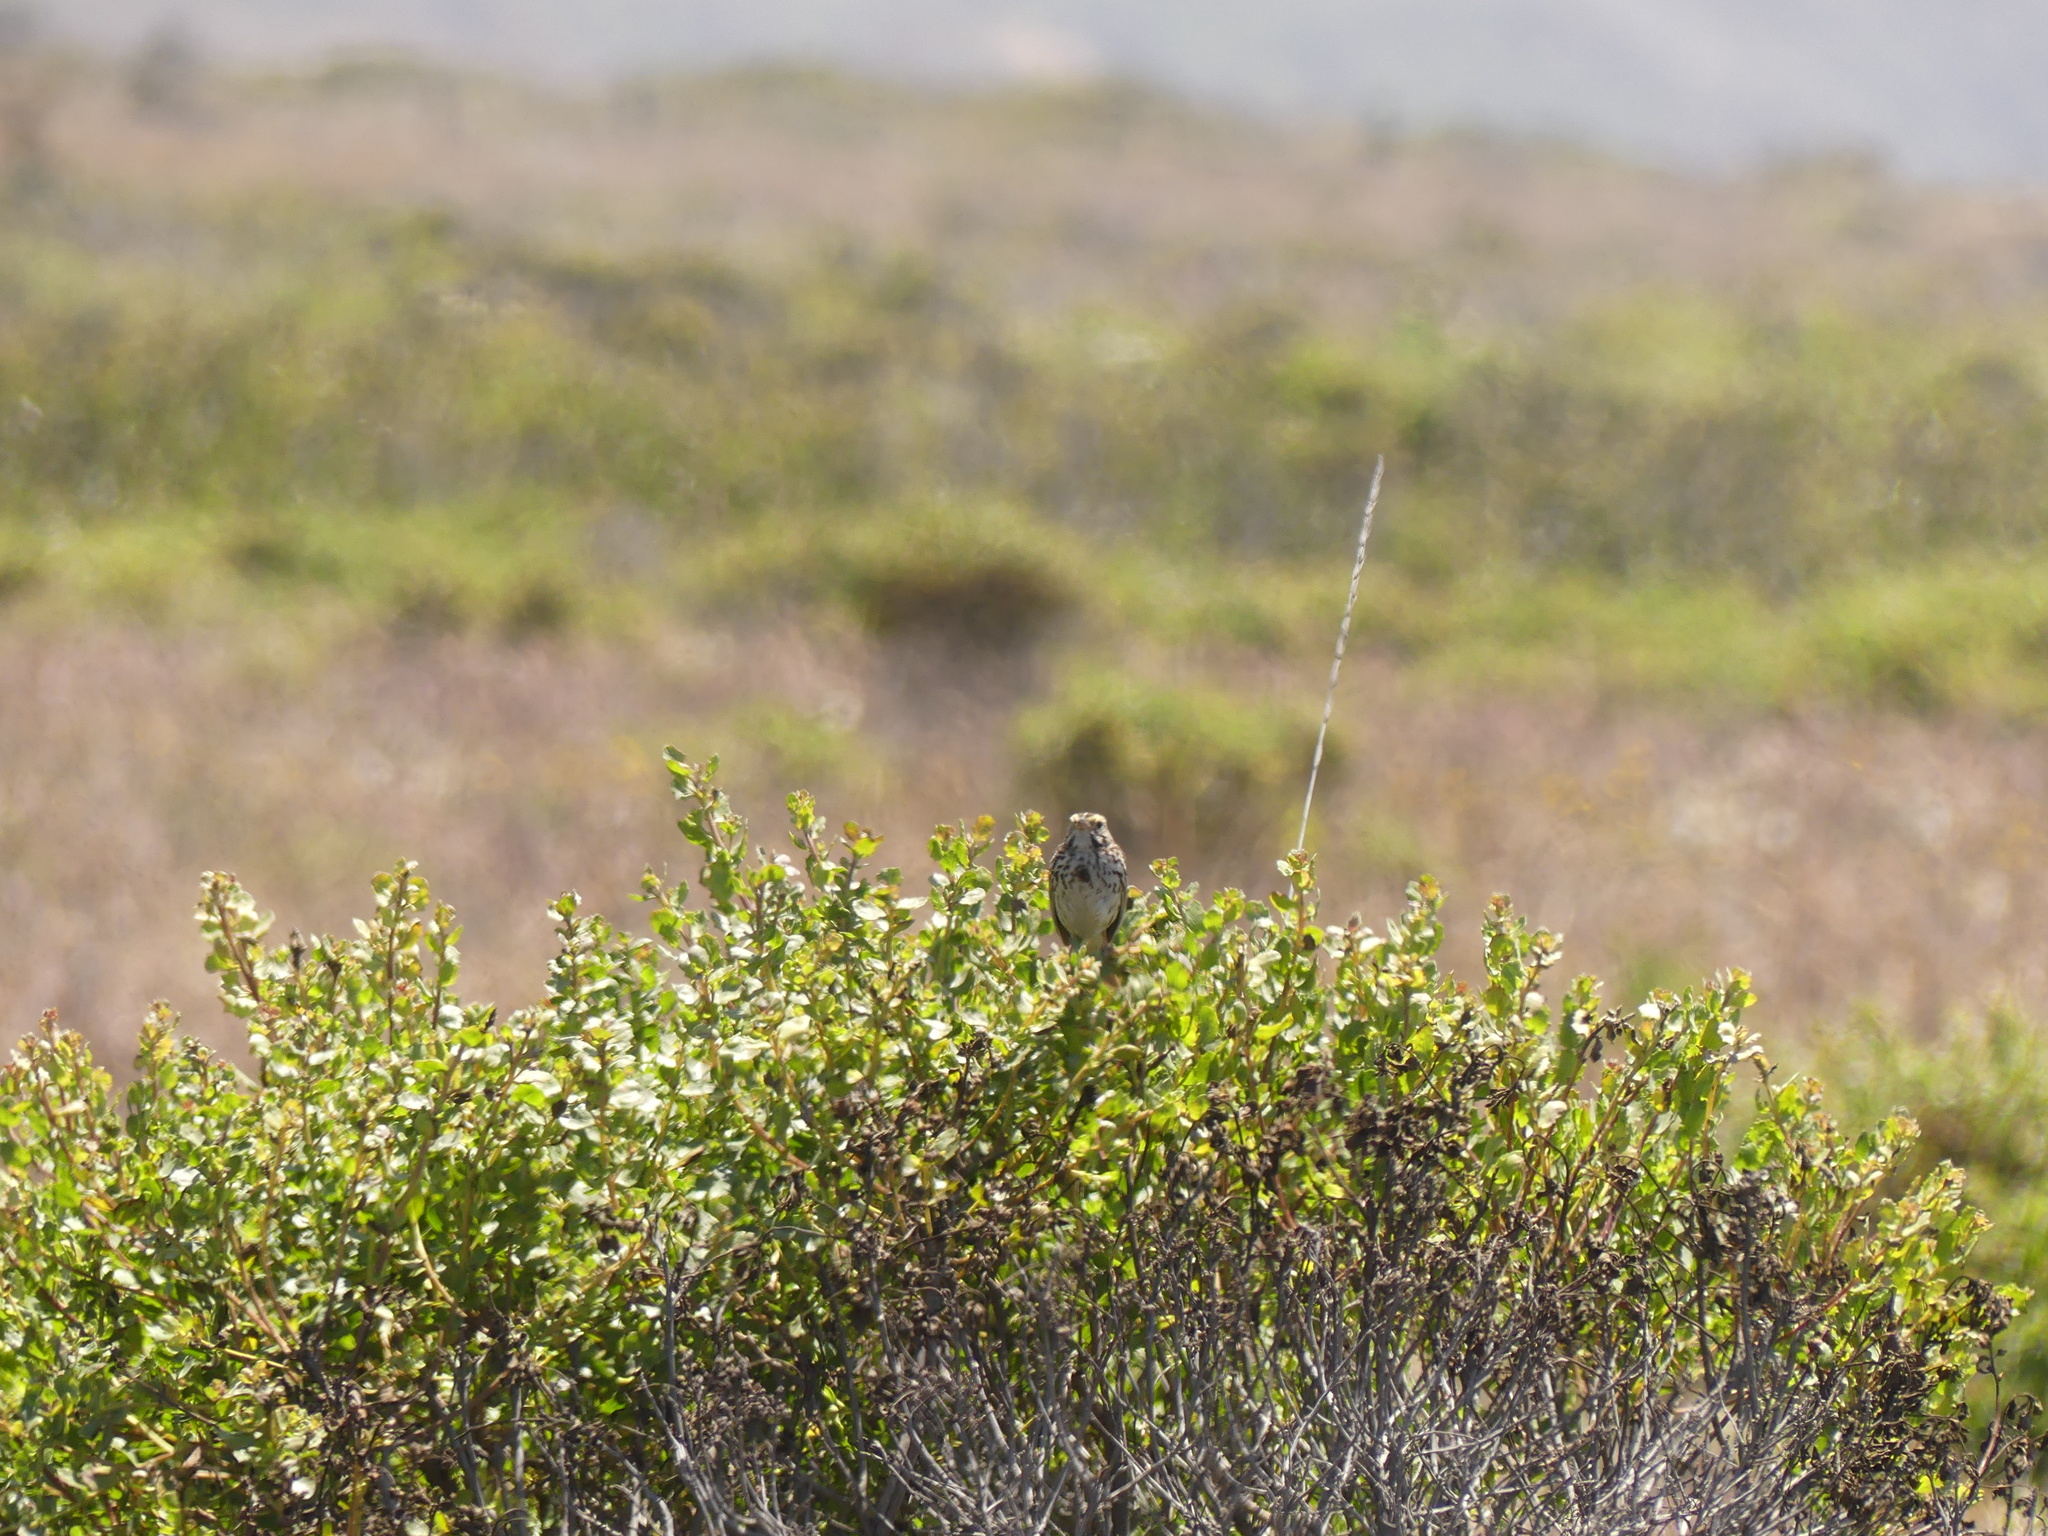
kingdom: Animalia
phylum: Chordata
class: Aves
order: Passeriformes
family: Passerellidae
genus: Passerculus
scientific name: Passerculus sandwichensis
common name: Savannah sparrow
